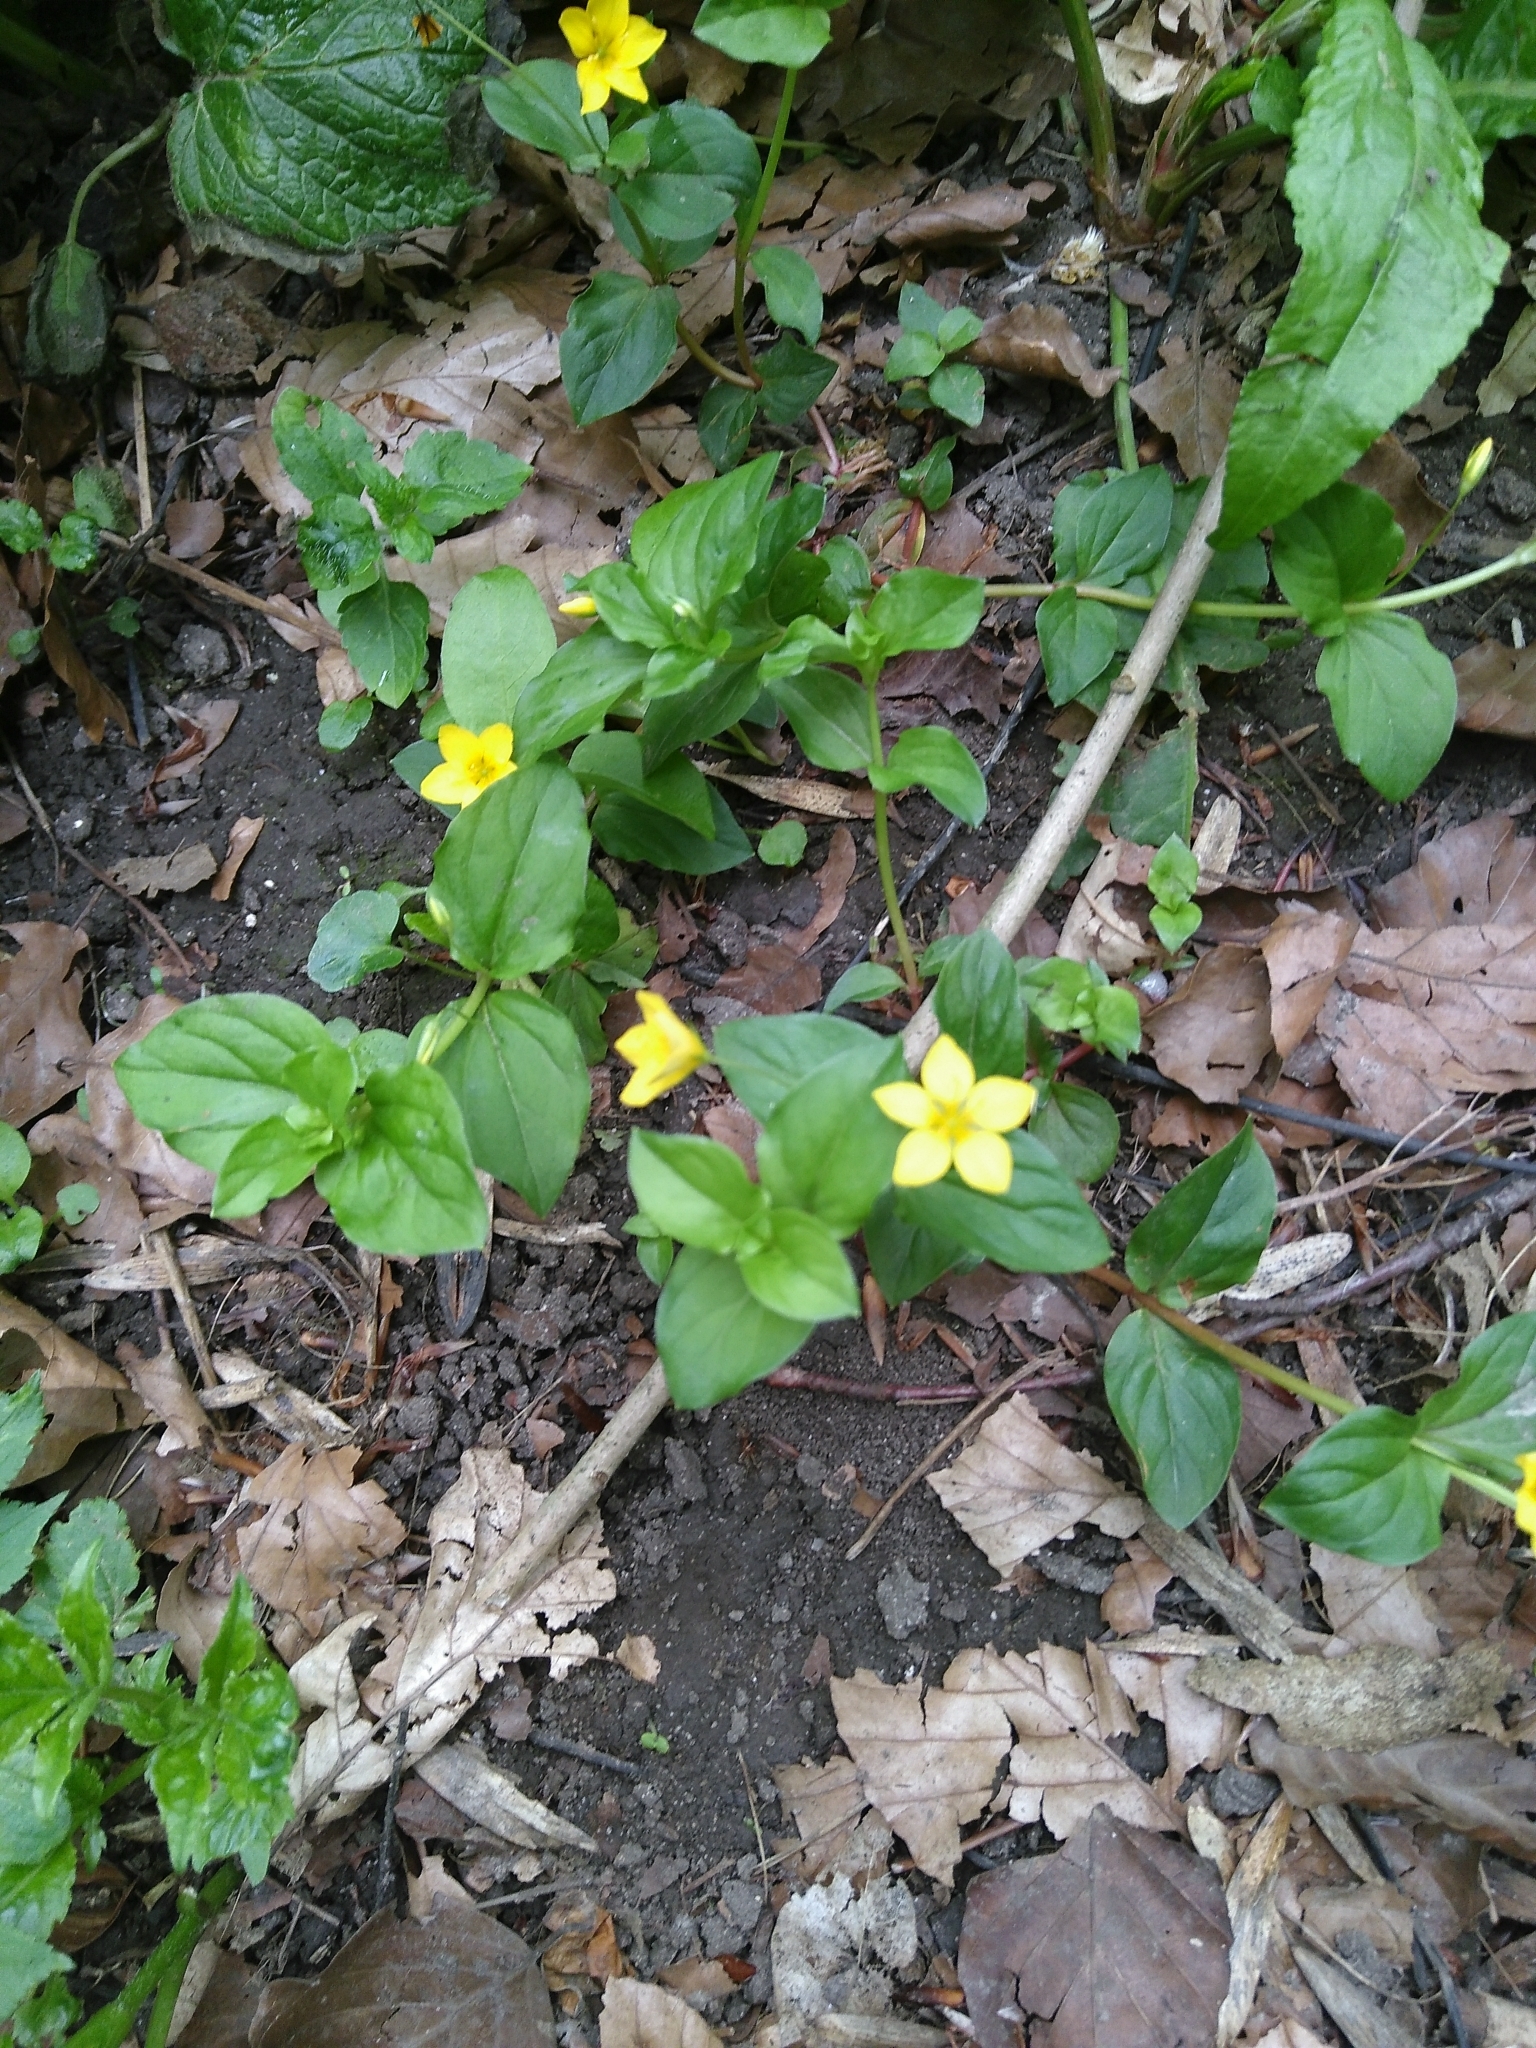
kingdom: Plantae
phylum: Tracheophyta
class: Magnoliopsida
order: Ericales
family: Primulaceae
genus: Lysimachia
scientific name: Lysimachia nemorum
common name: Yellow pimpernel
